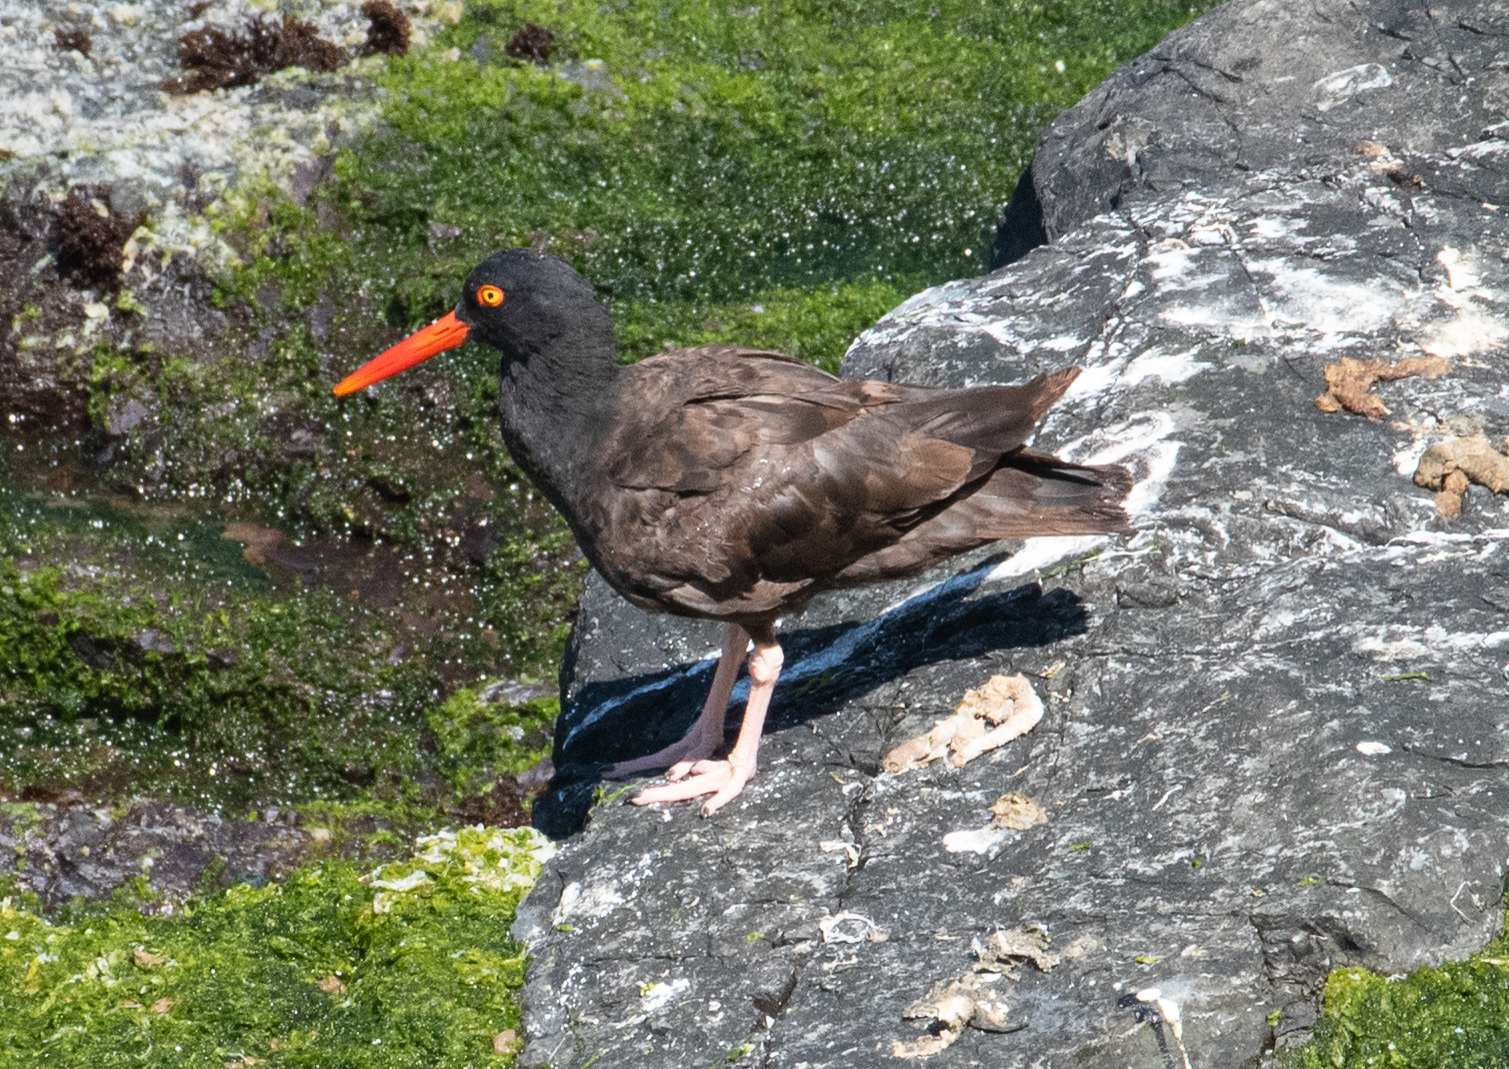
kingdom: Animalia
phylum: Chordata
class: Aves
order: Charadriiformes
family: Haematopodidae
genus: Haematopus
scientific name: Haematopus bachmani
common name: Black oystercatcher
